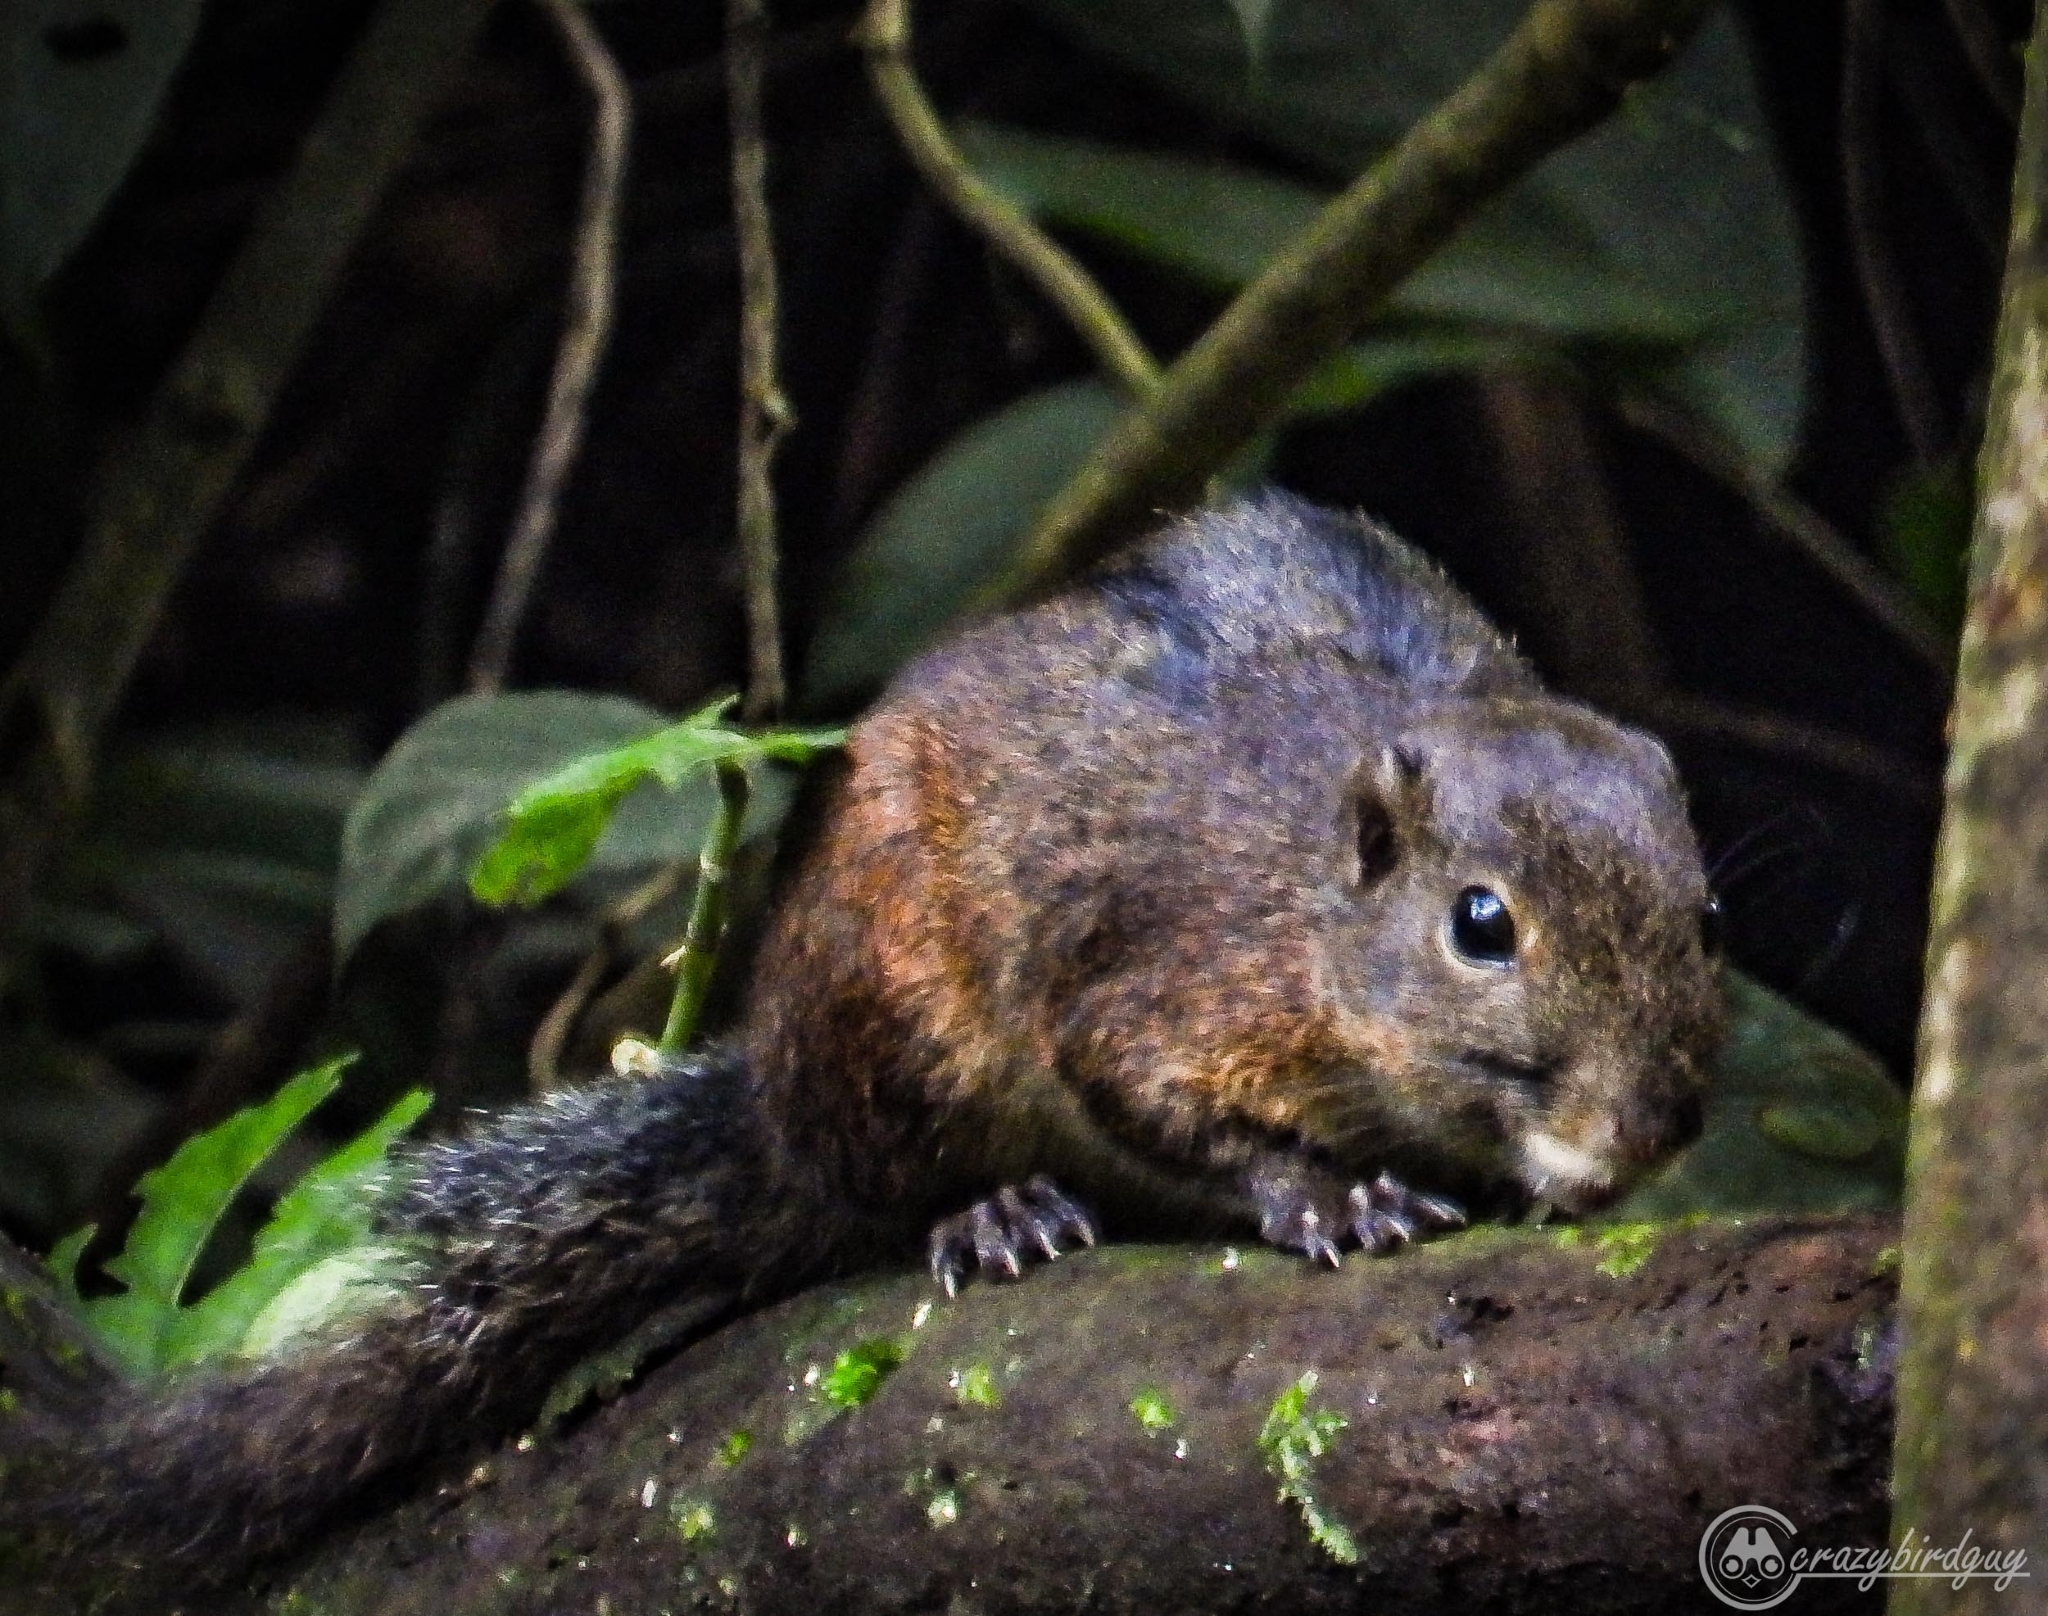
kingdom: Animalia
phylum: Chordata
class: Mammalia
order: Rodentia
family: Sciuridae
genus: Lariscus
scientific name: Lariscus insignis
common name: Three-striped ground squirrel
